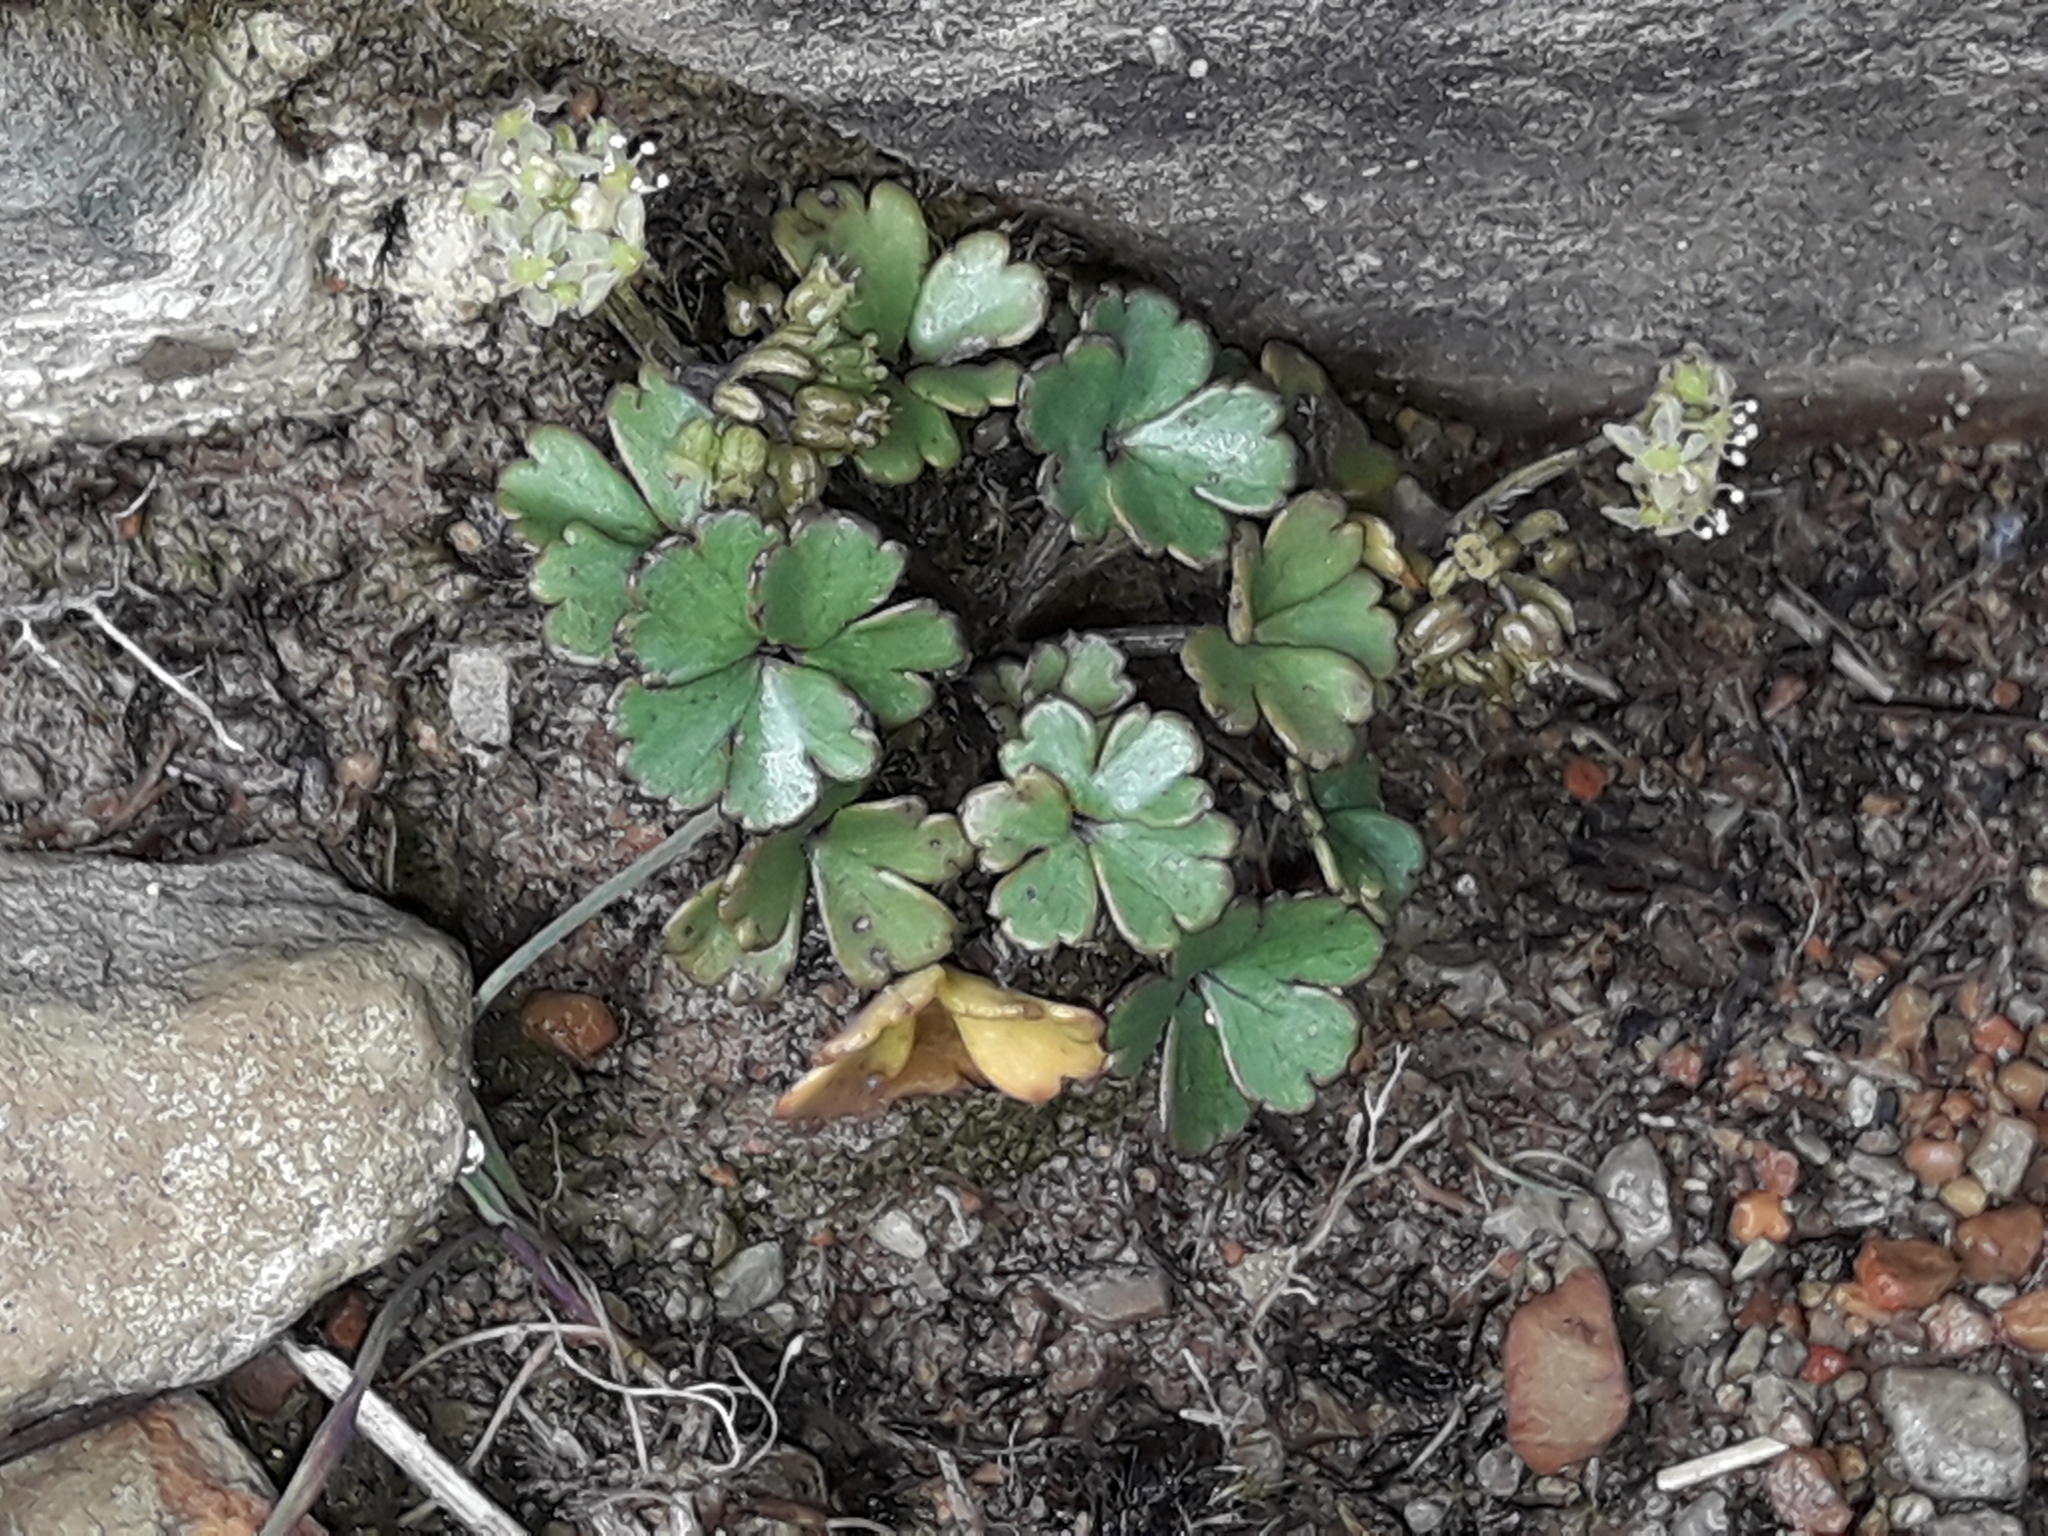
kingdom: Plantae
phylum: Tracheophyta
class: Magnoliopsida
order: Apiales
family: Apiaceae
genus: Azorella
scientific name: Azorella roughii
